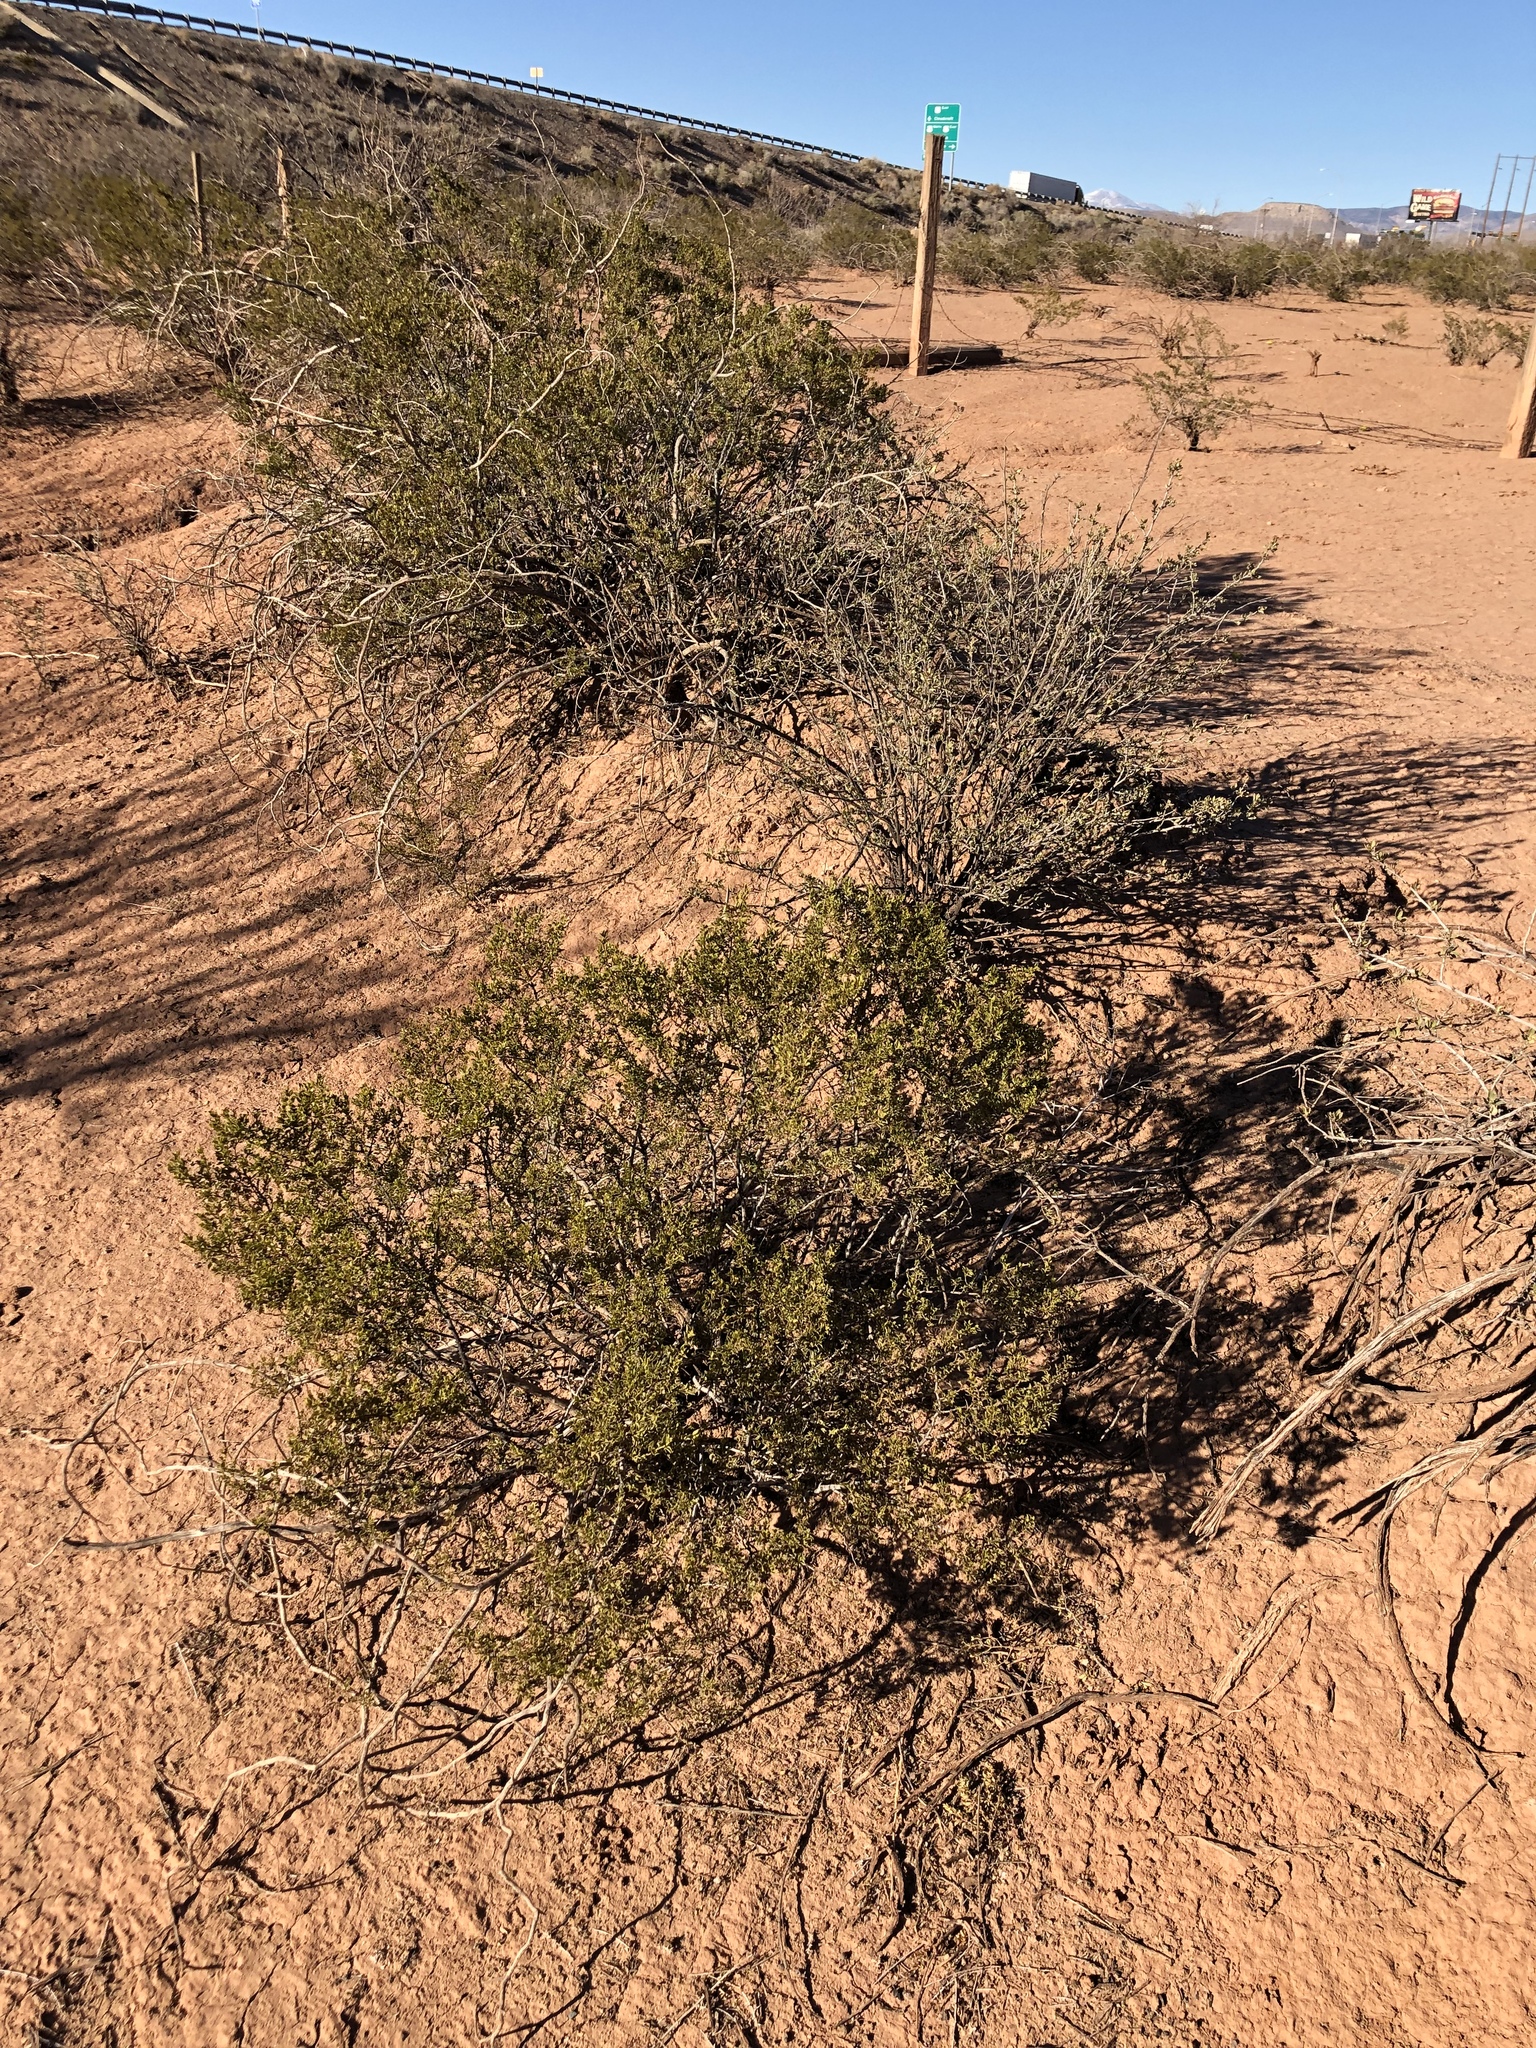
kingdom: Plantae
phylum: Tracheophyta
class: Magnoliopsida
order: Zygophyllales
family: Zygophyllaceae
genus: Larrea
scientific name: Larrea tridentata
